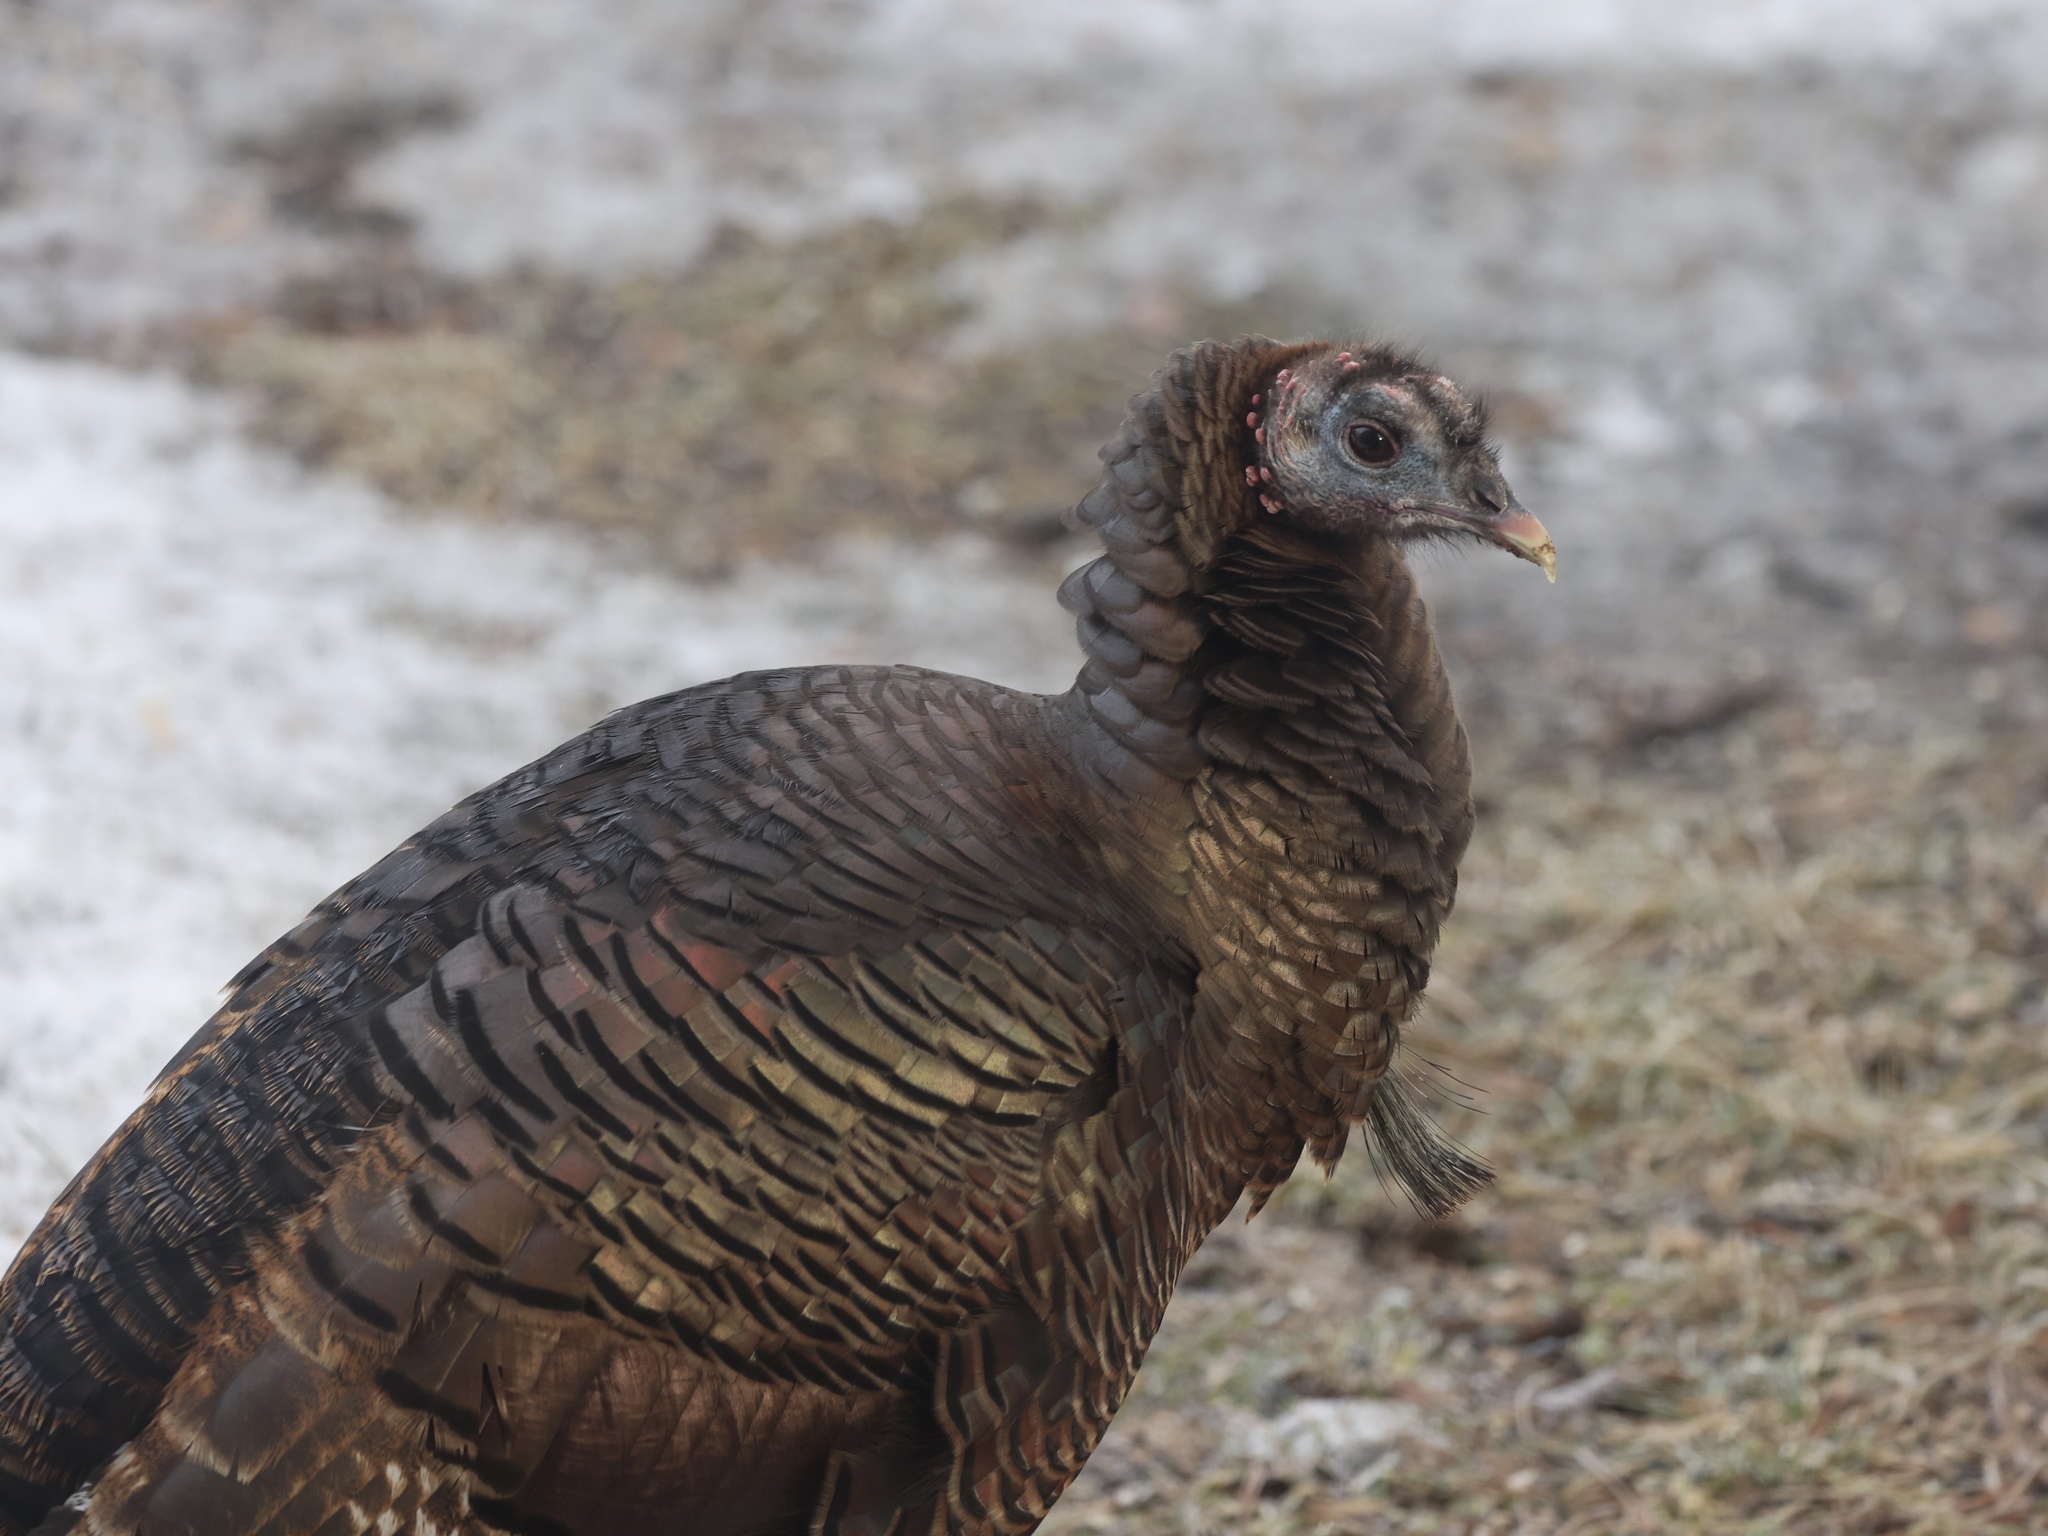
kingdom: Animalia
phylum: Chordata
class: Aves
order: Galliformes
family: Phasianidae
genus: Meleagris
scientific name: Meleagris gallopavo
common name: Wild turkey
